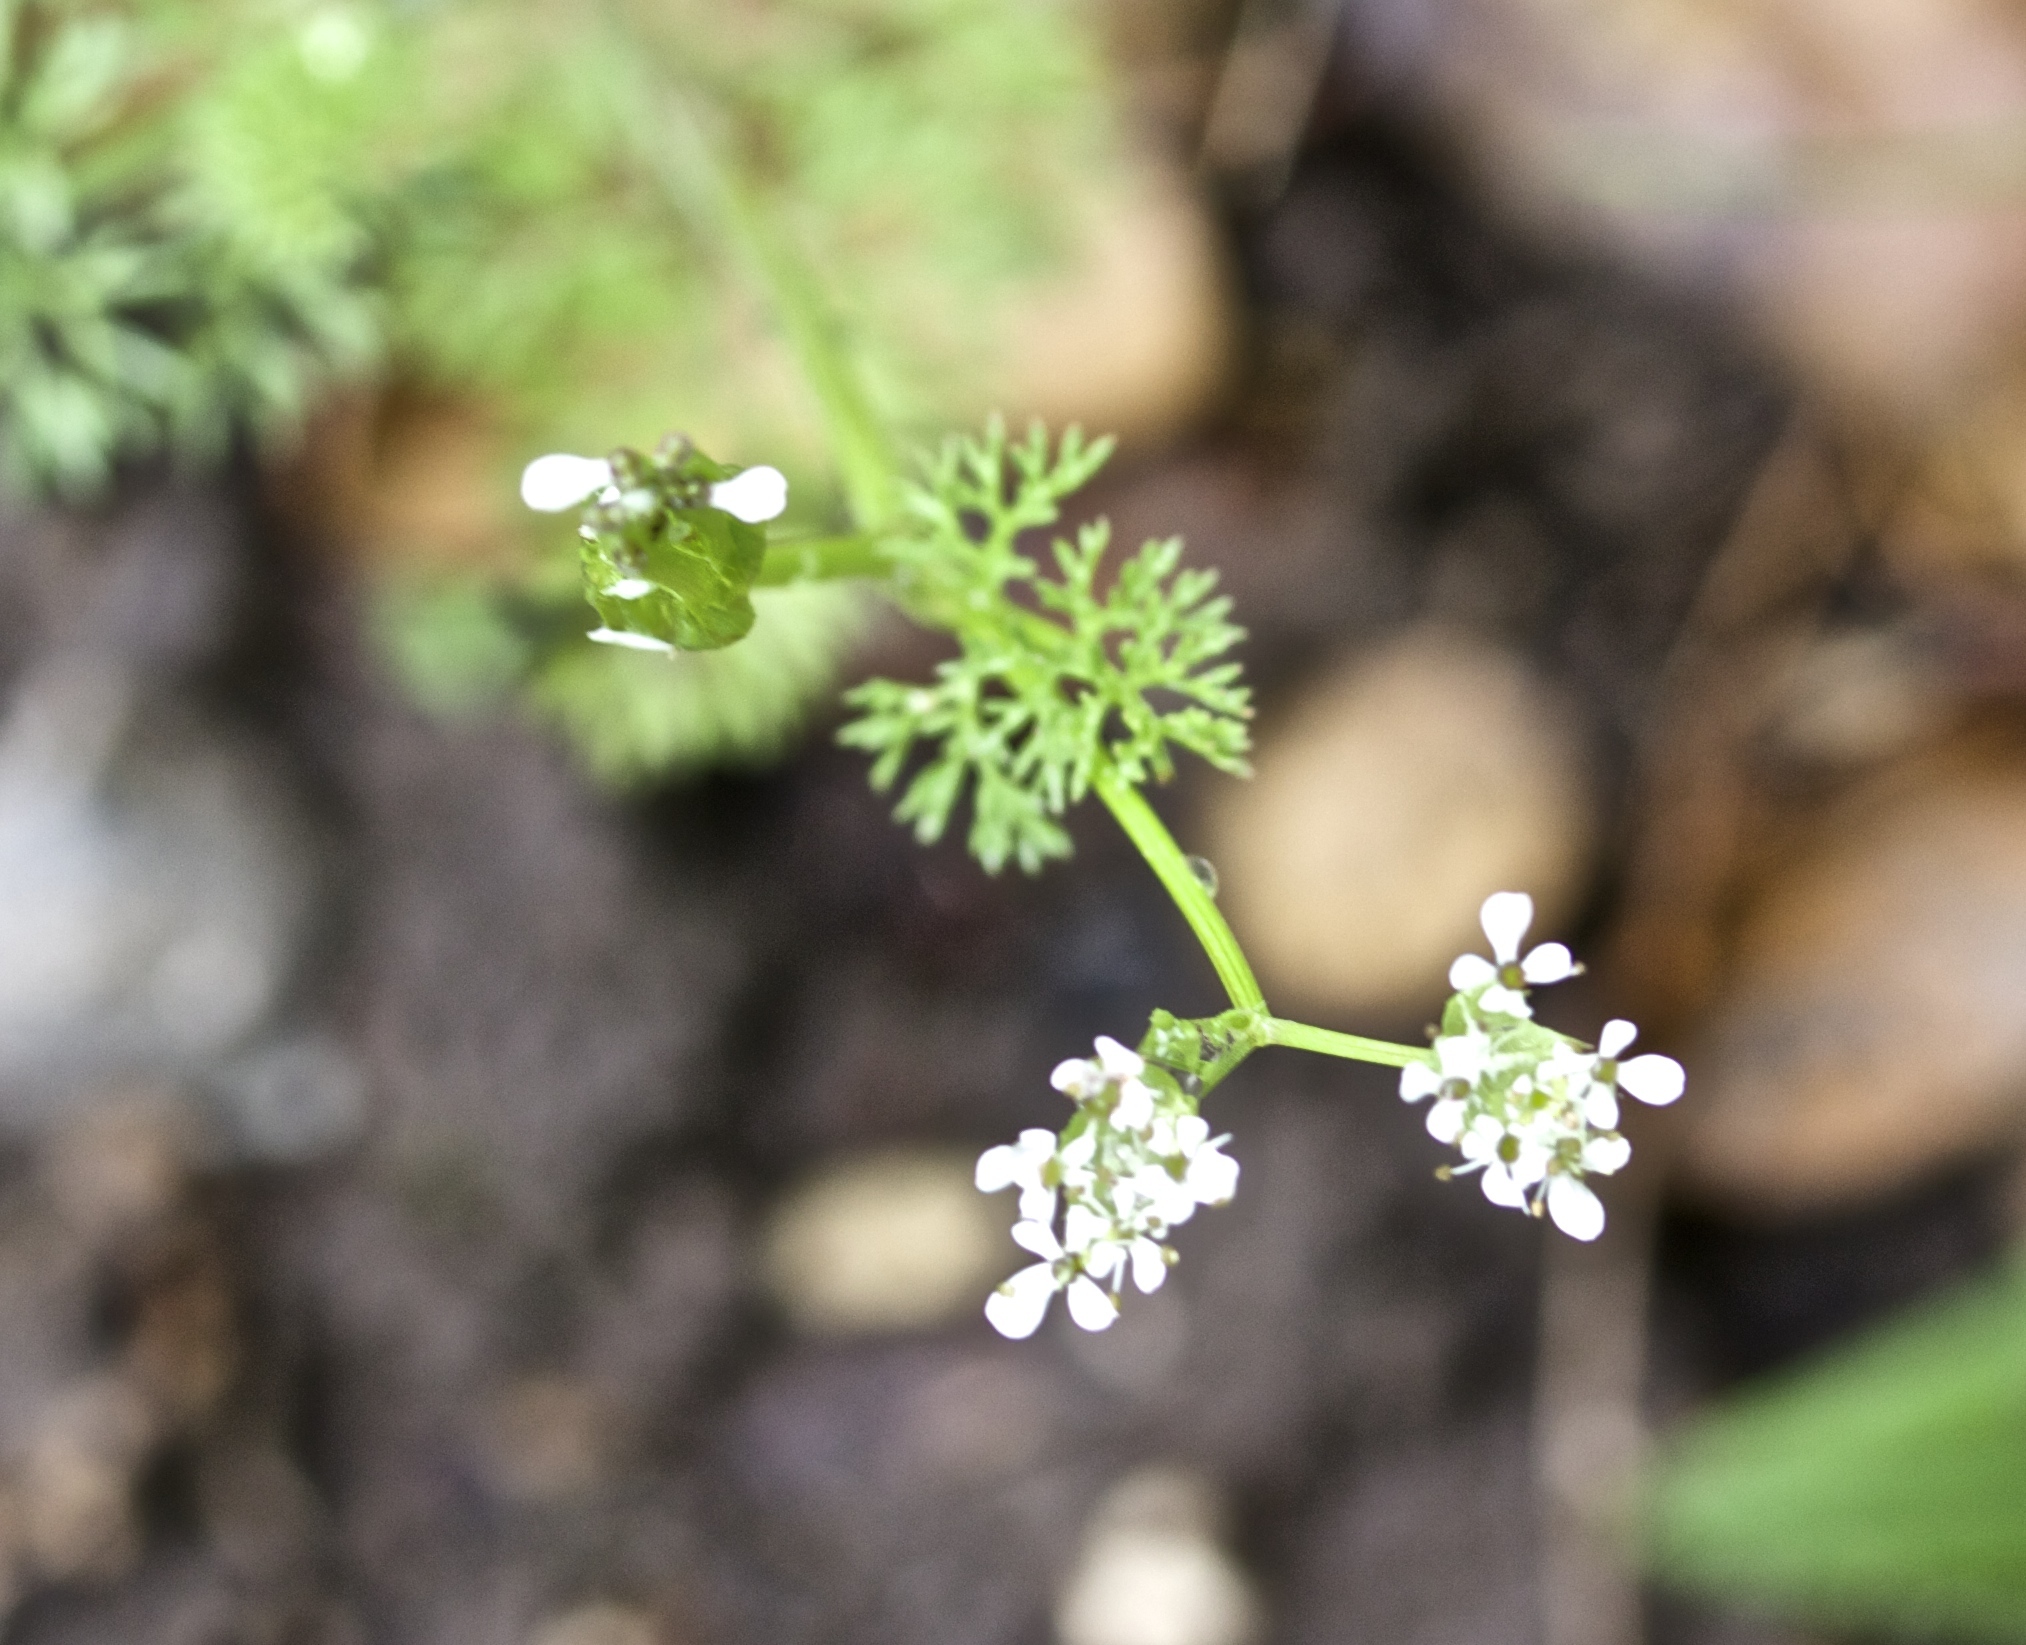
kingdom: Plantae
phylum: Tracheophyta
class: Magnoliopsida
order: Apiales
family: Apiaceae
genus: Scandix
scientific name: Scandix pecten-veneris
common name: Shepherd's-needle
